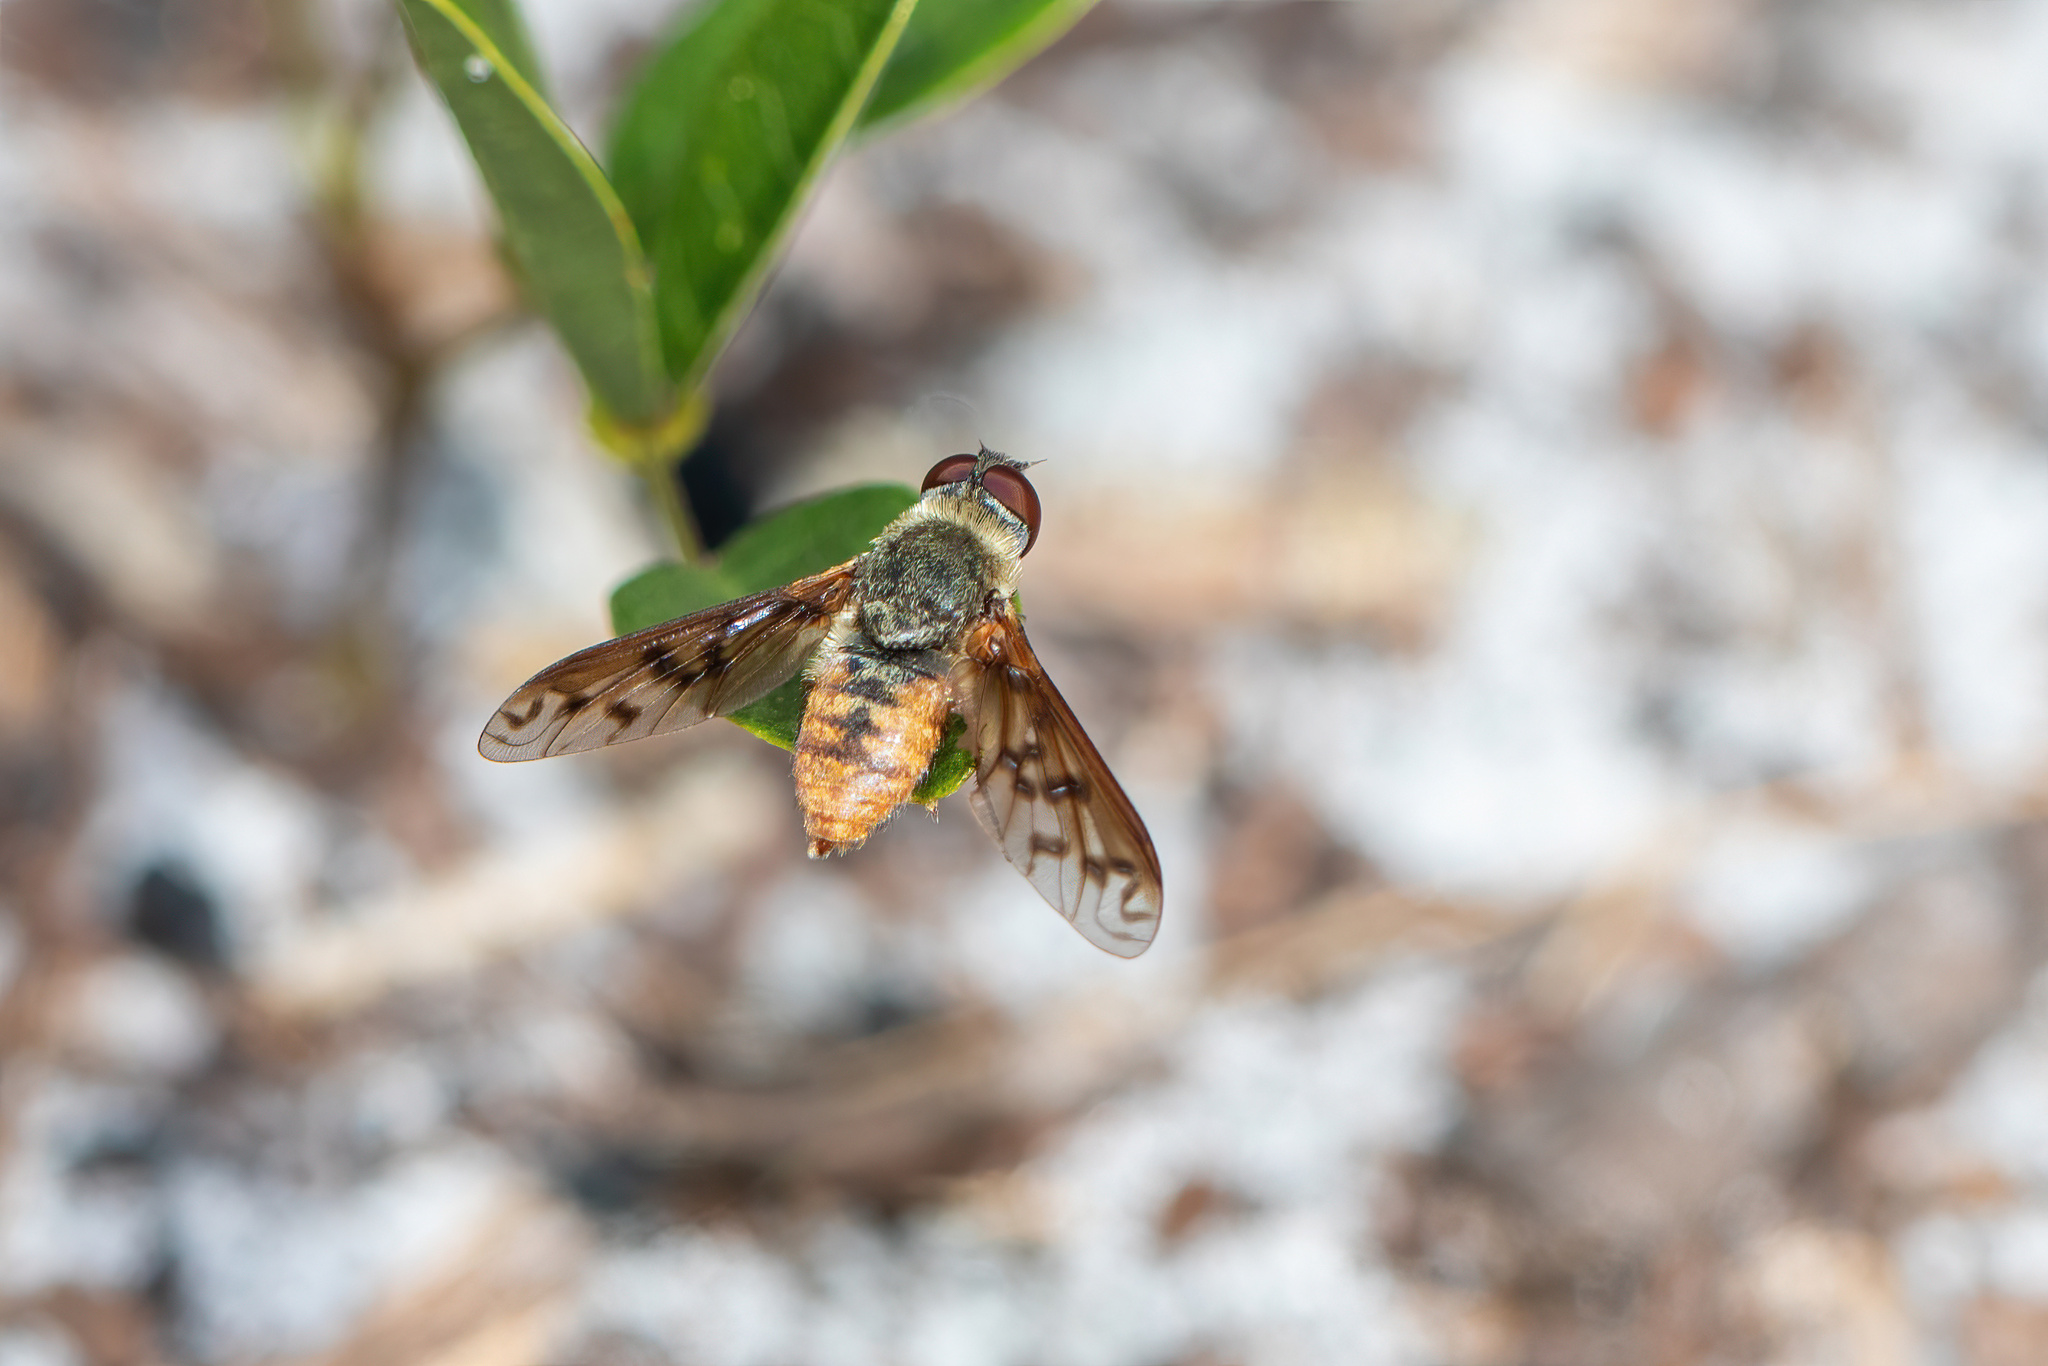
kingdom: Animalia
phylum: Arthropoda
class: Insecta
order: Diptera
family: Bombyliidae
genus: Neodiplocampta
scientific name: Neodiplocampta miranda
